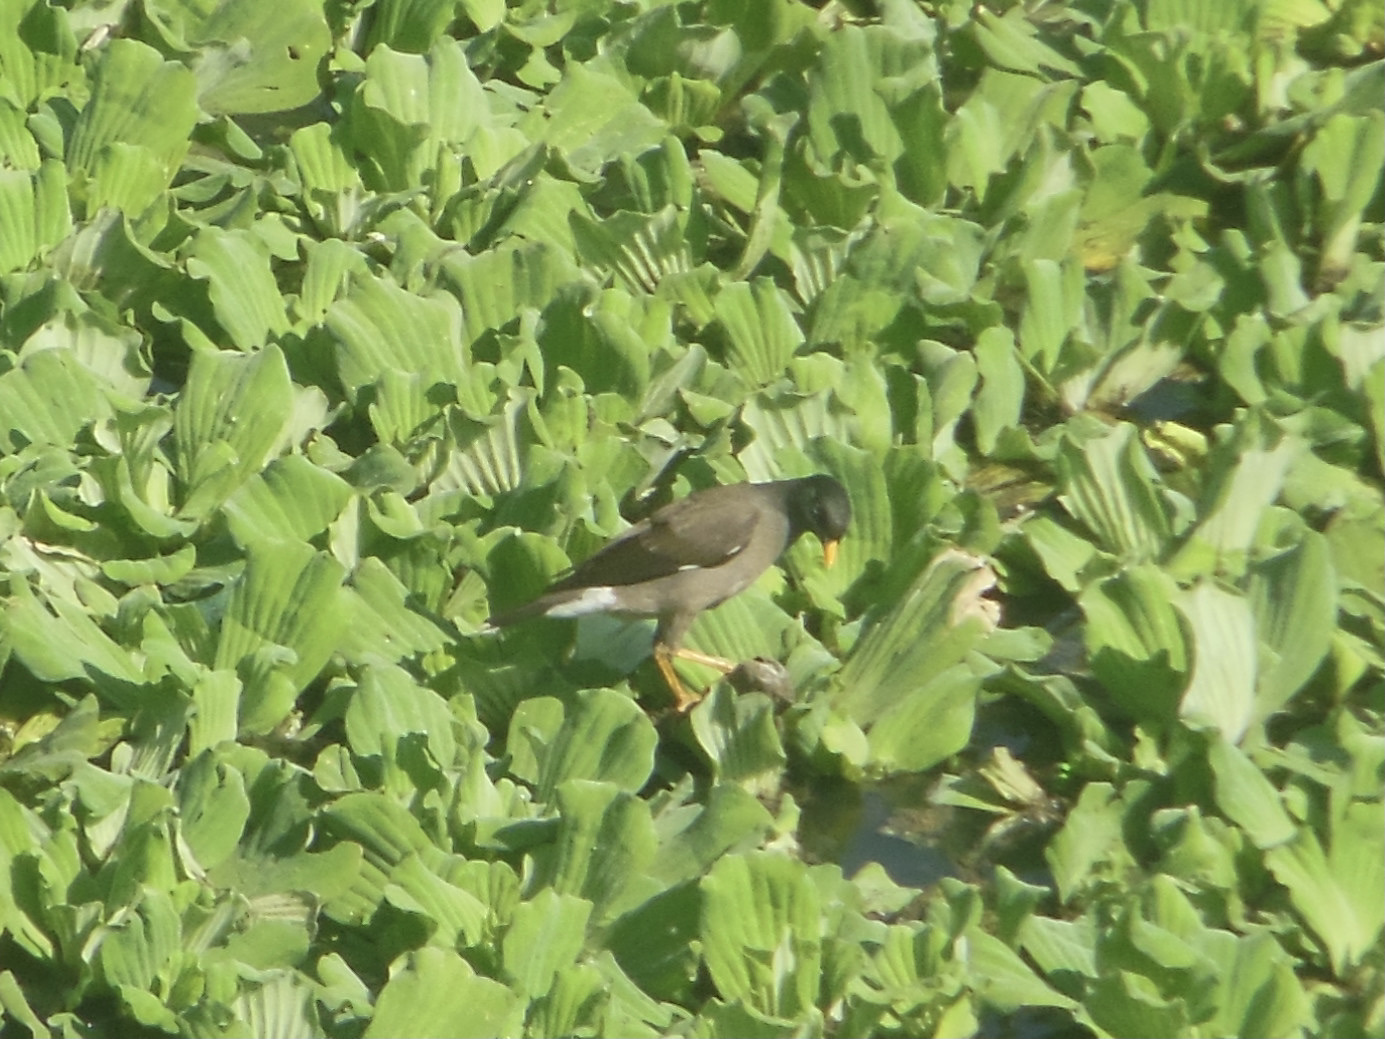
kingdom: Animalia
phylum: Chordata
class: Aves
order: Passeriformes
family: Sturnidae
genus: Acridotheres
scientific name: Acridotheres fuscus
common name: Jungle myna
